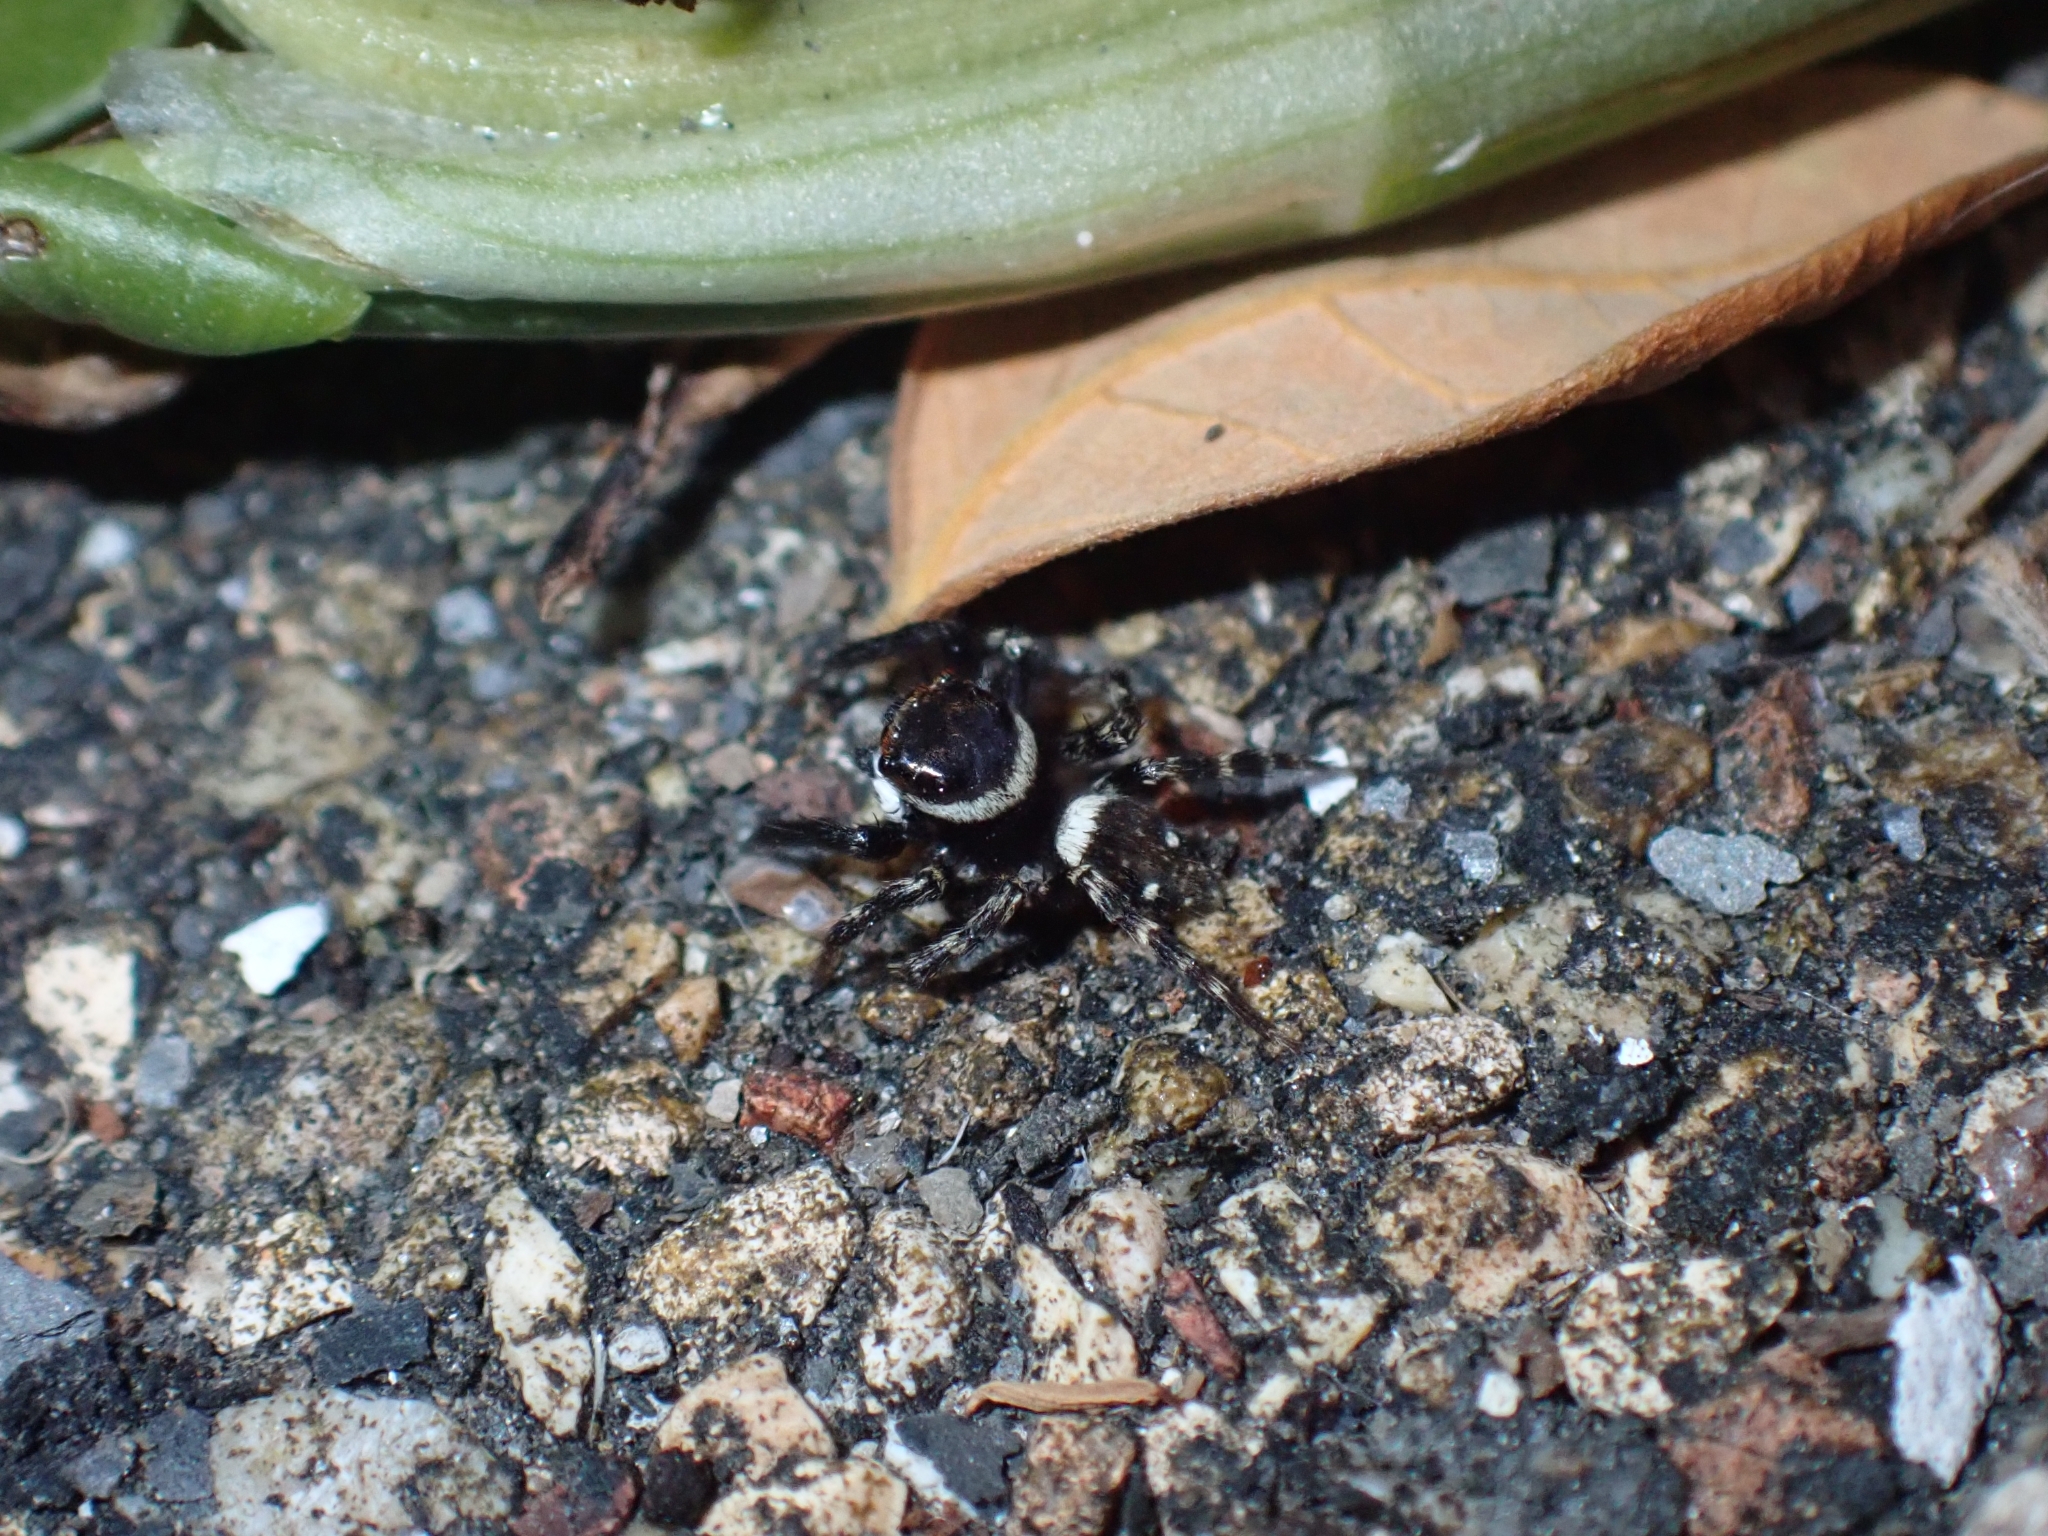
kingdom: Animalia
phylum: Arthropoda
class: Arachnida
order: Araneae
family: Salticidae
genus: Hasarius
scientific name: Hasarius adansoni
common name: Jumping spider
